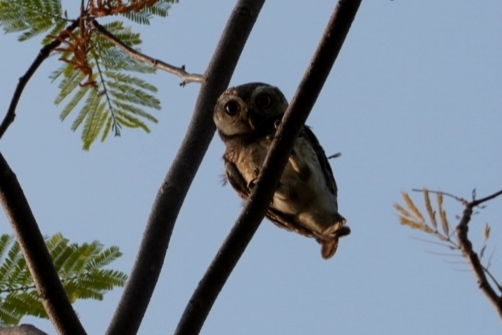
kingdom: Animalia
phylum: Chordata
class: Aves
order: Strigiformes
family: Strigidae
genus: Athene
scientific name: Athene brama
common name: Spotted owlet
